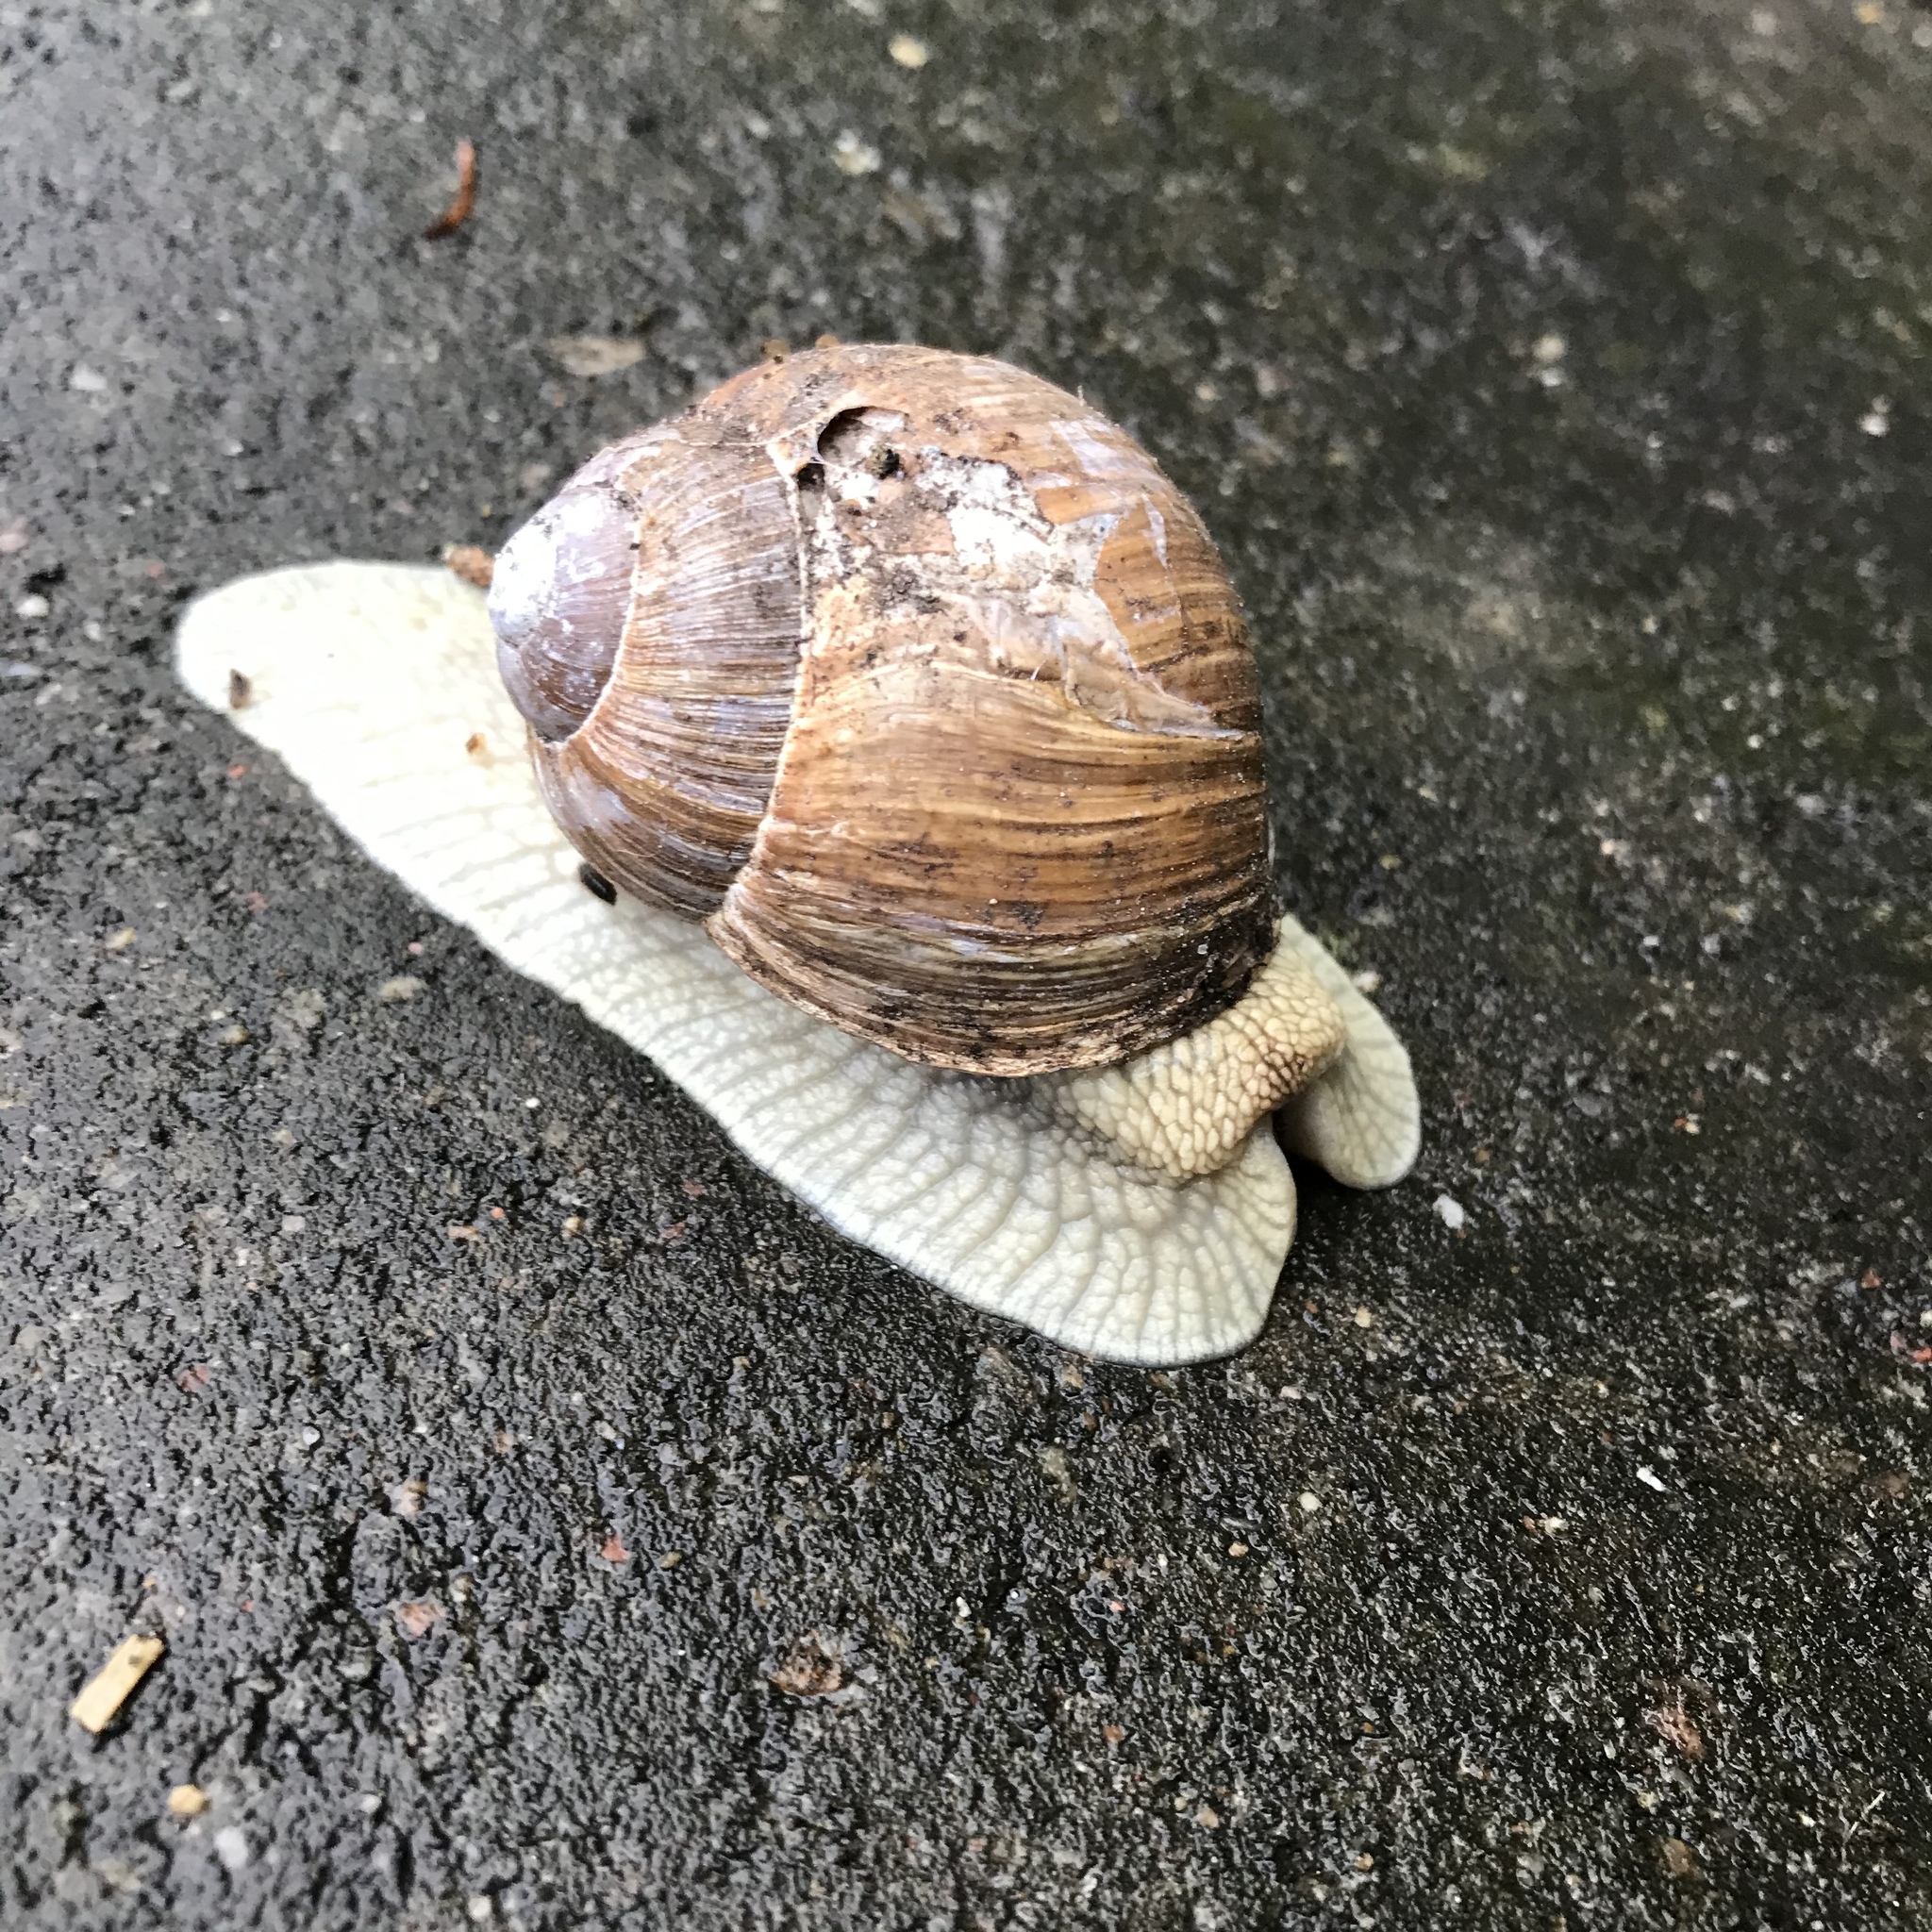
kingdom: Animalia
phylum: Mollusca
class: Gastropoda
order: Stylommatophora
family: Helicidae
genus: Helix
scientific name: Helix pomatia
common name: Roman snail
